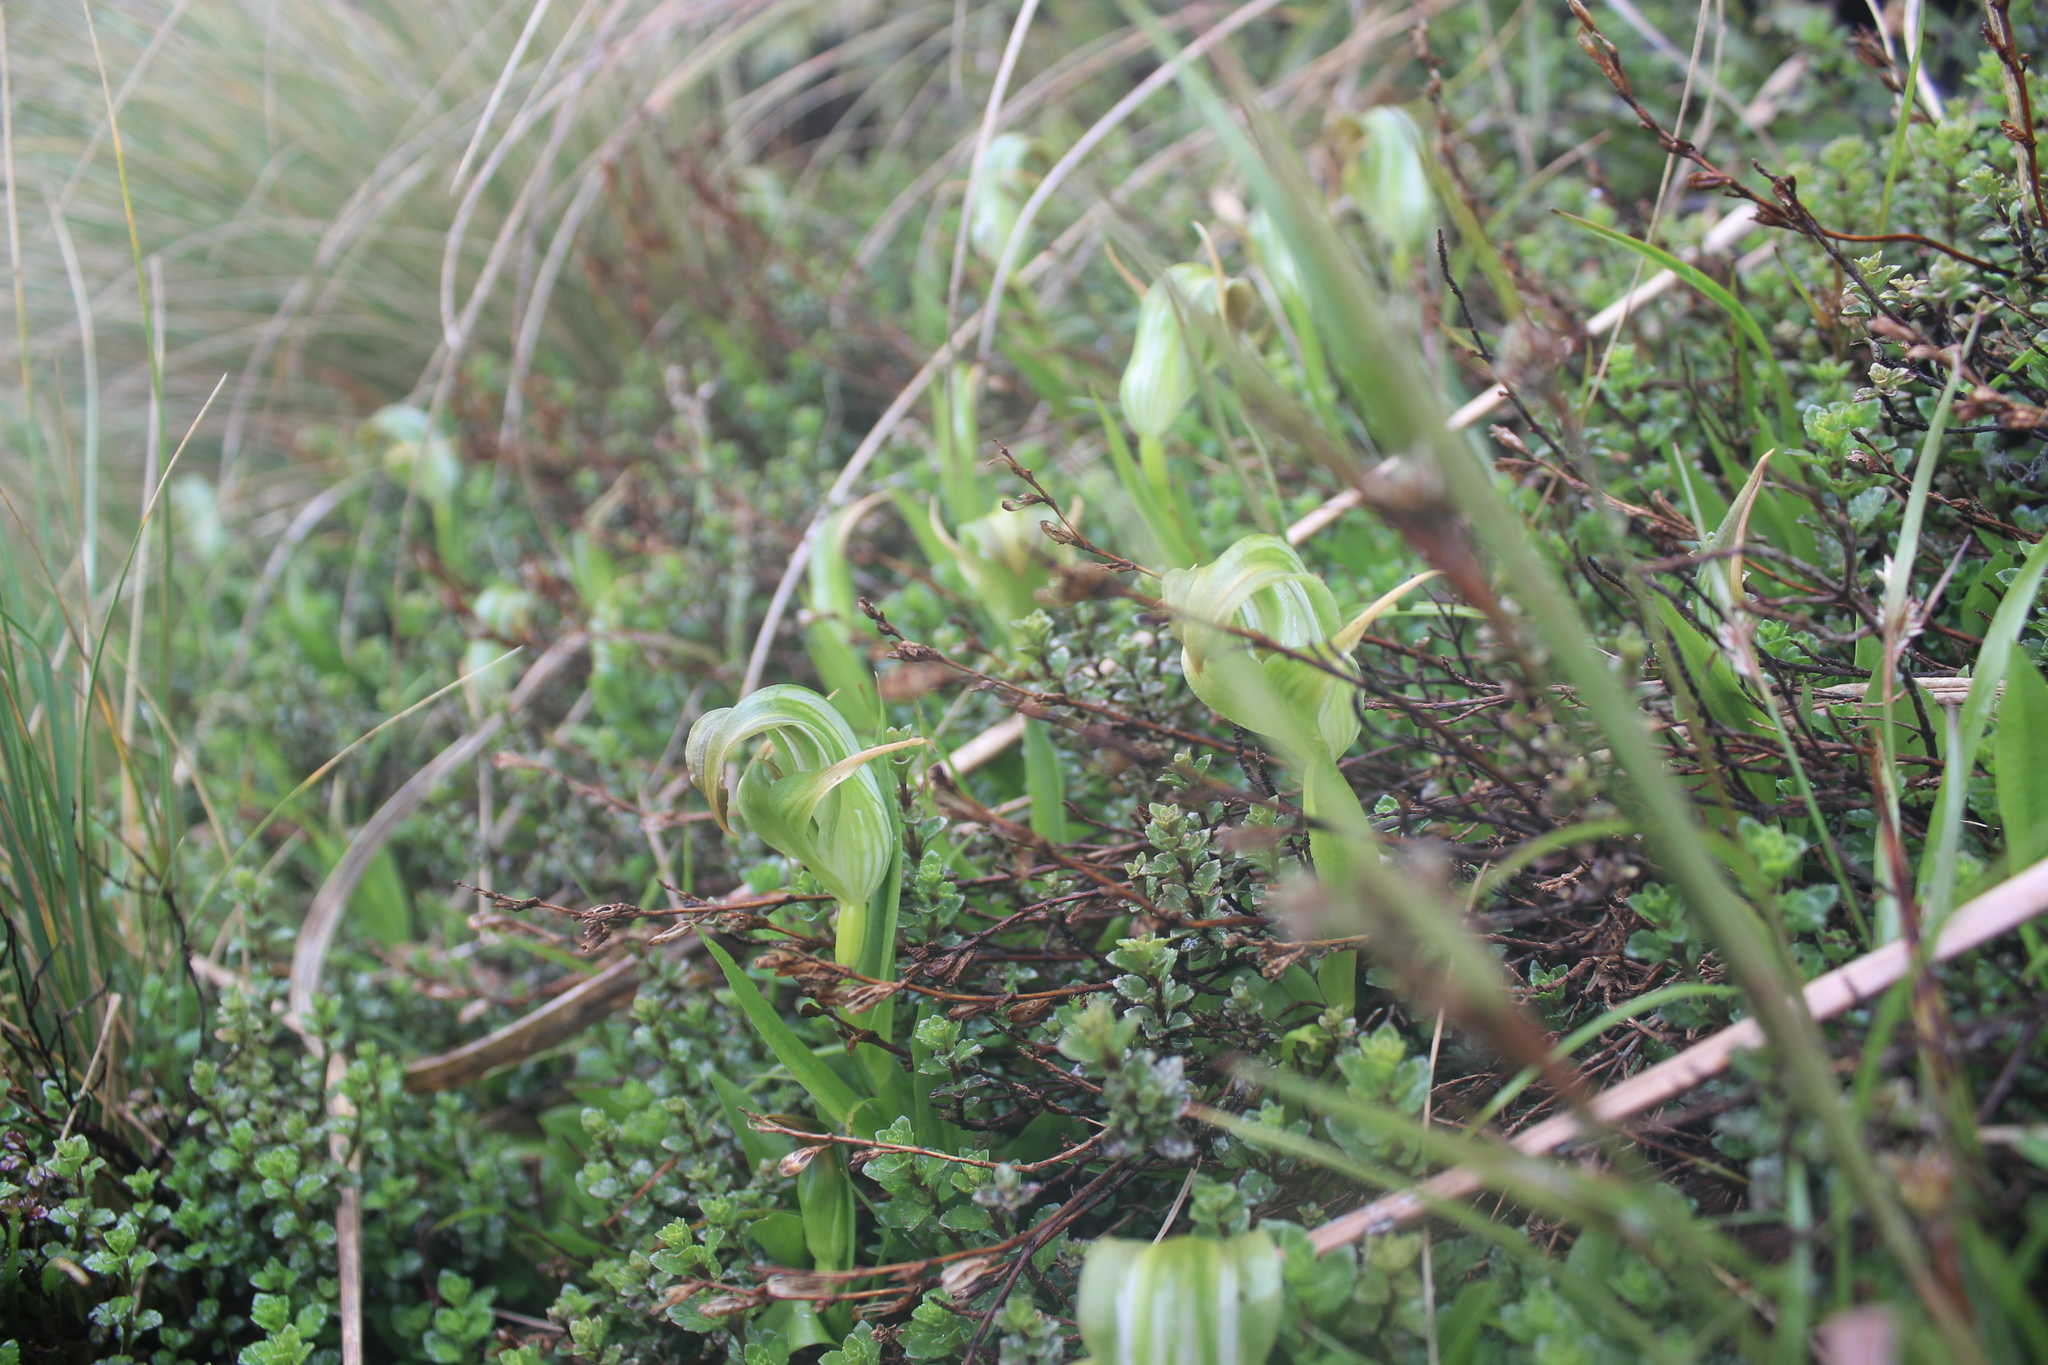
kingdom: Plantae
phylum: Tracheophyta
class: Liliopsida
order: Asparagales
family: Orchidaceae
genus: Pterostylis
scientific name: Pterostylis patens
